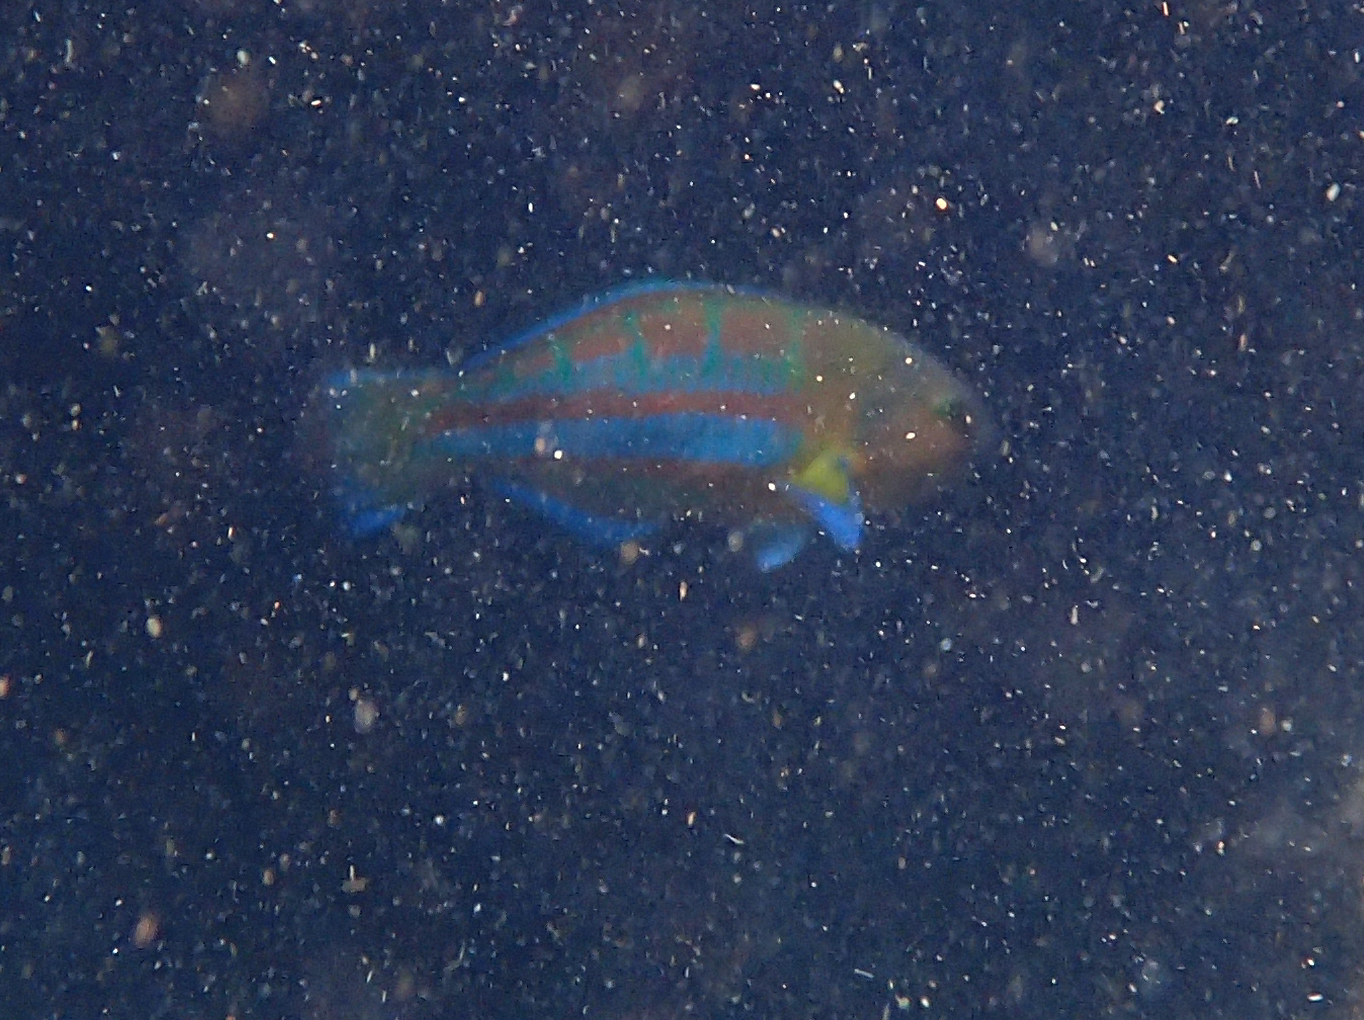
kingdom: Animalia
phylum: Chordata
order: Perciformes
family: Labridae
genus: Thalassoma
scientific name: Thalassoma trilobatum
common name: Christmas wrasse
